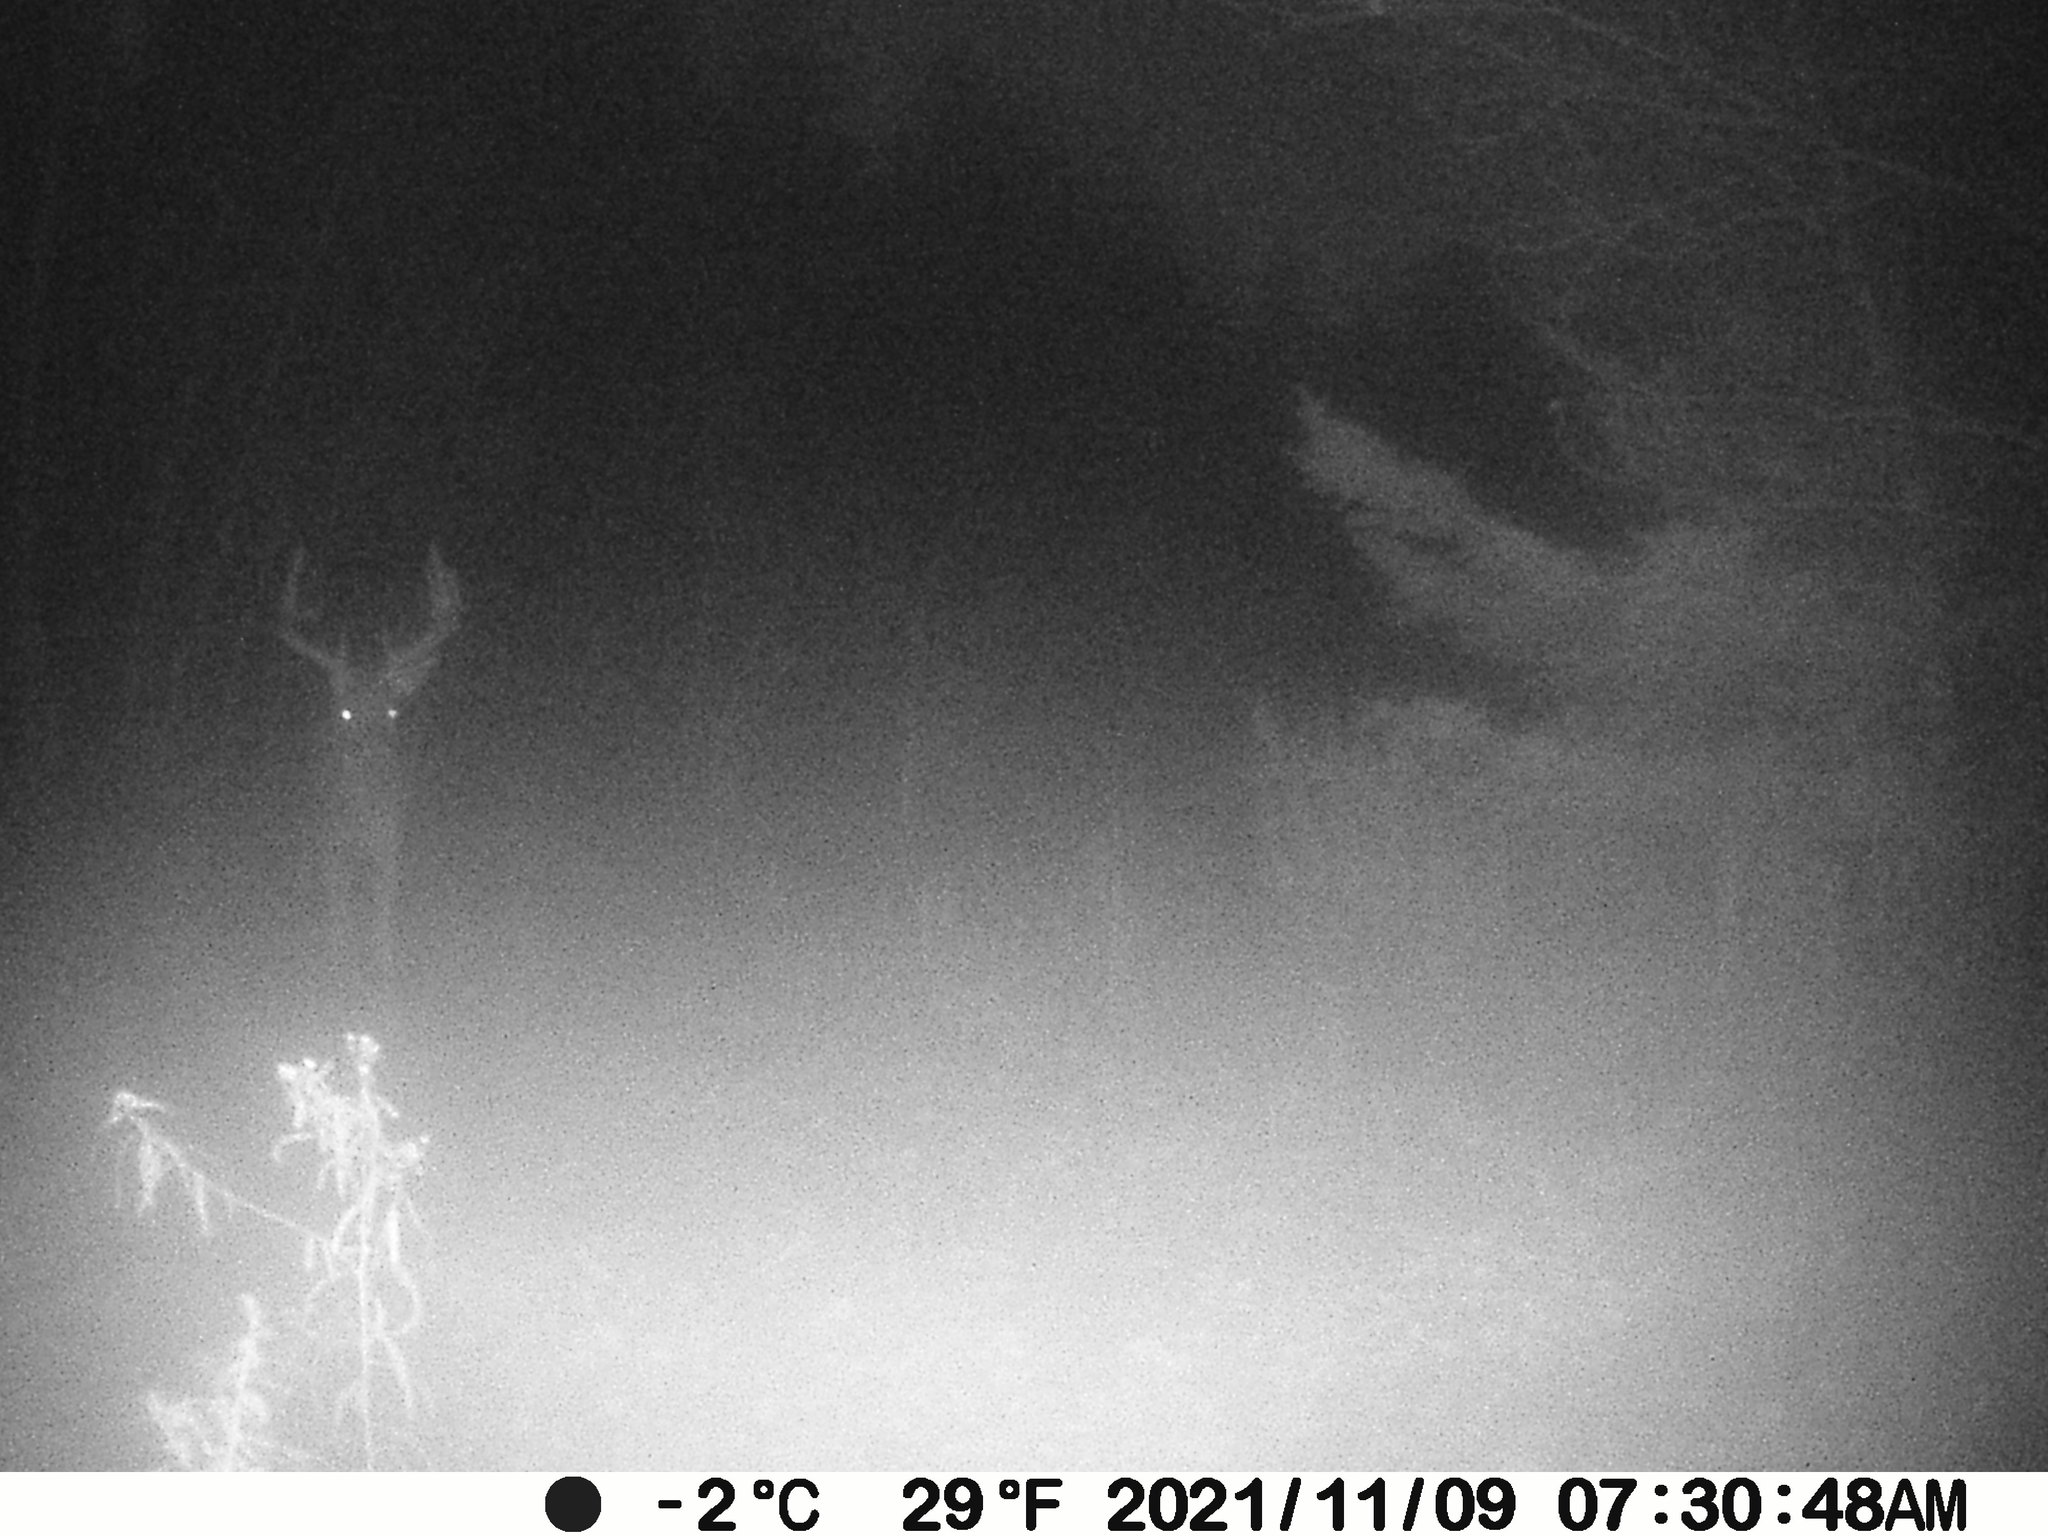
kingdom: Animalia
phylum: Chordata
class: Mammalia
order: Artiodactyla
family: Cervidae
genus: Odocoileus
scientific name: Odocoileus virginianus
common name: White-tailed deer
